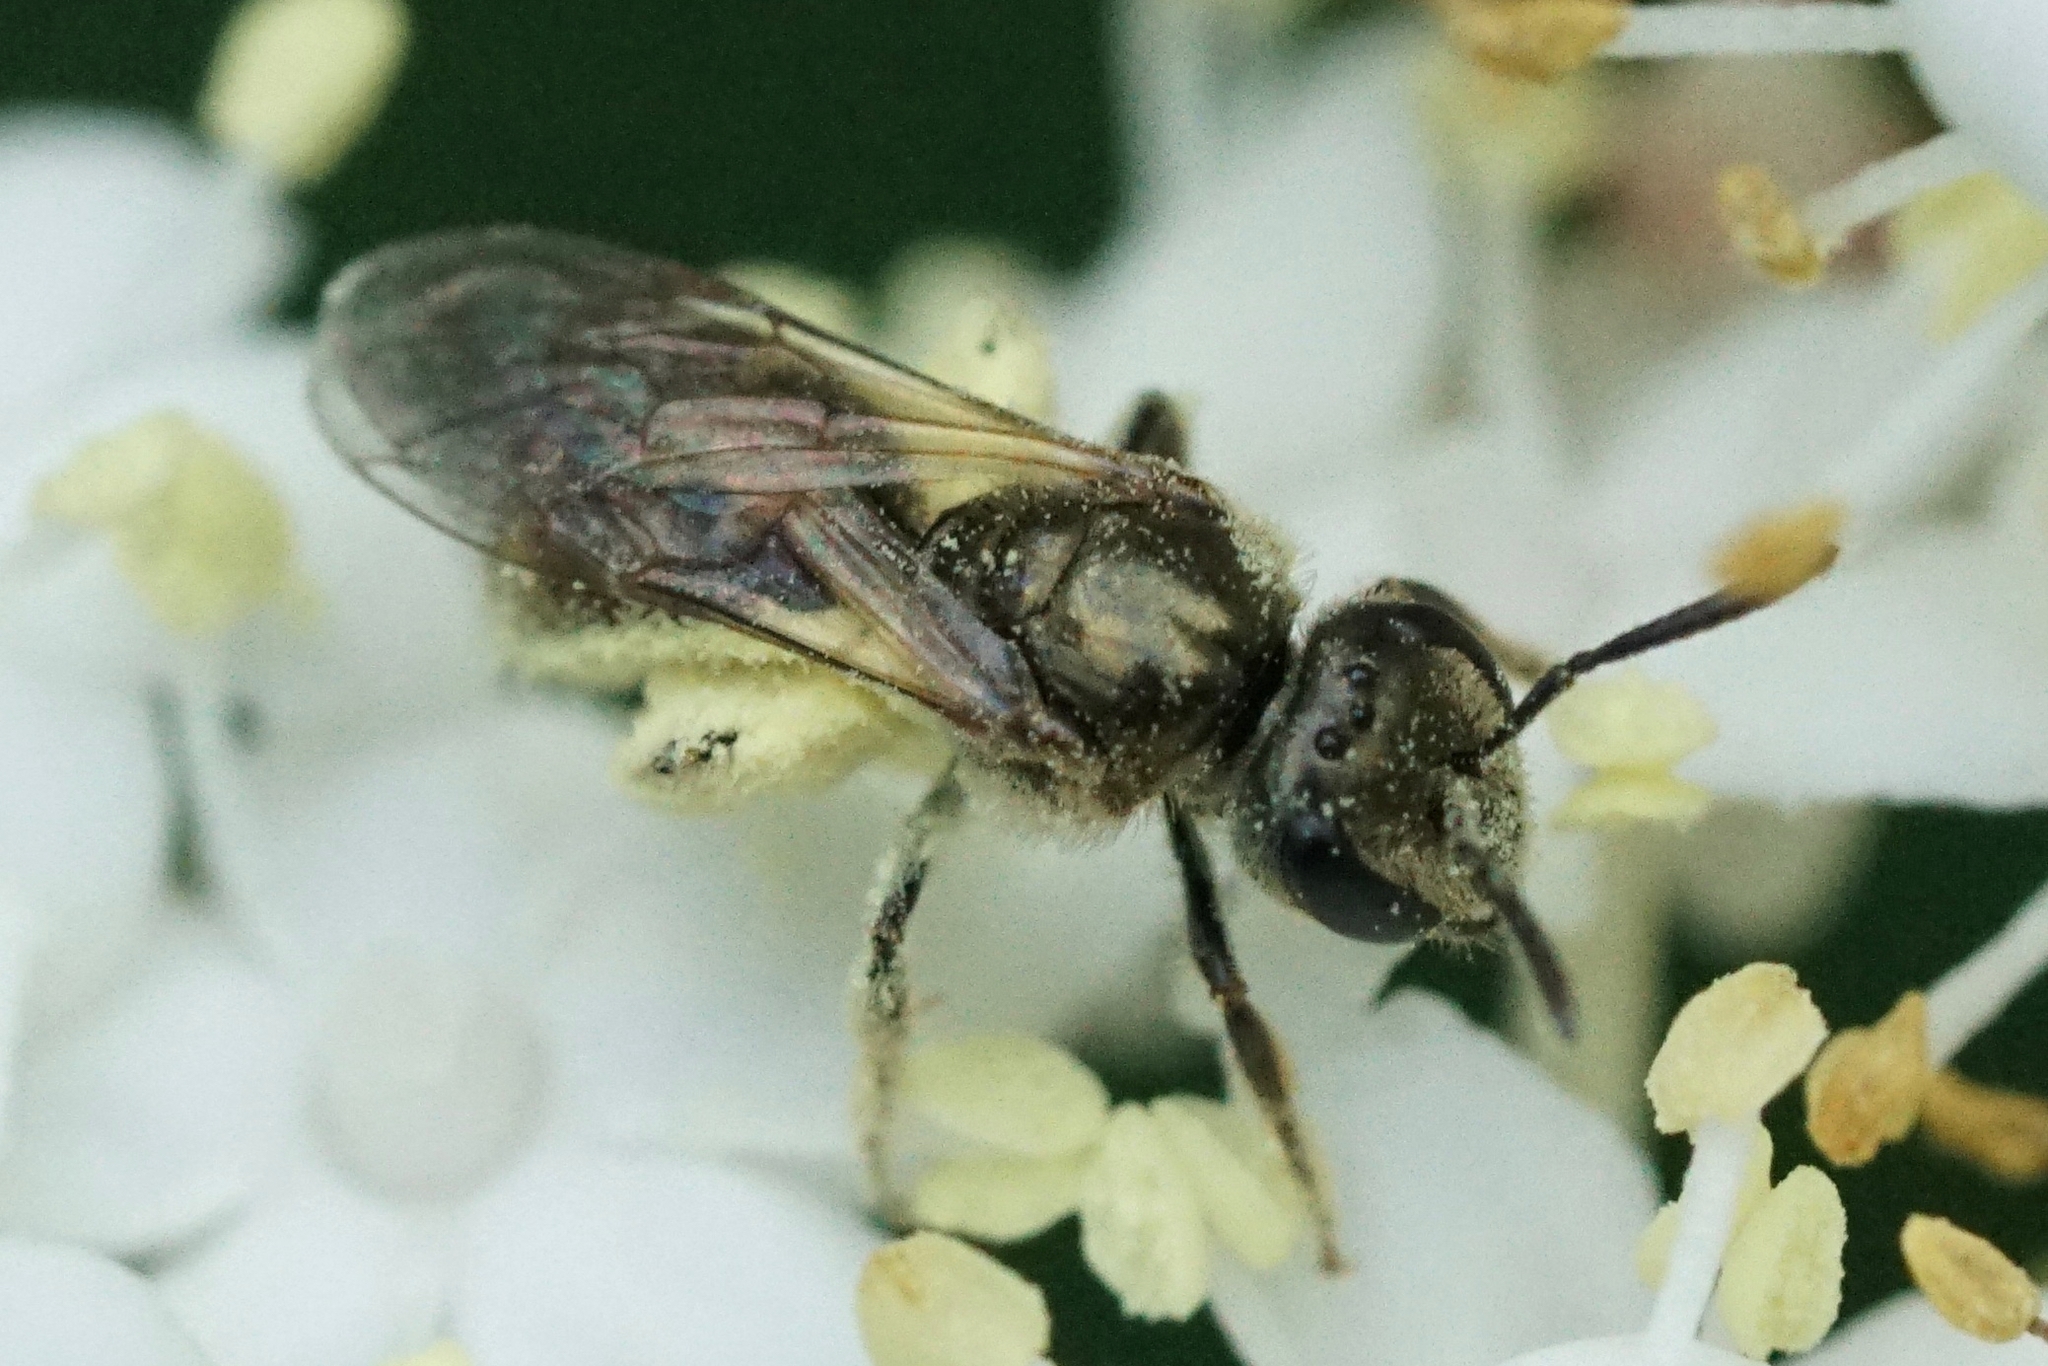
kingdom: Animalia
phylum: Arthropoda
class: Insecta
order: Hymenoptera
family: Halictidae
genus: Dialictus
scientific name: Dialictus
